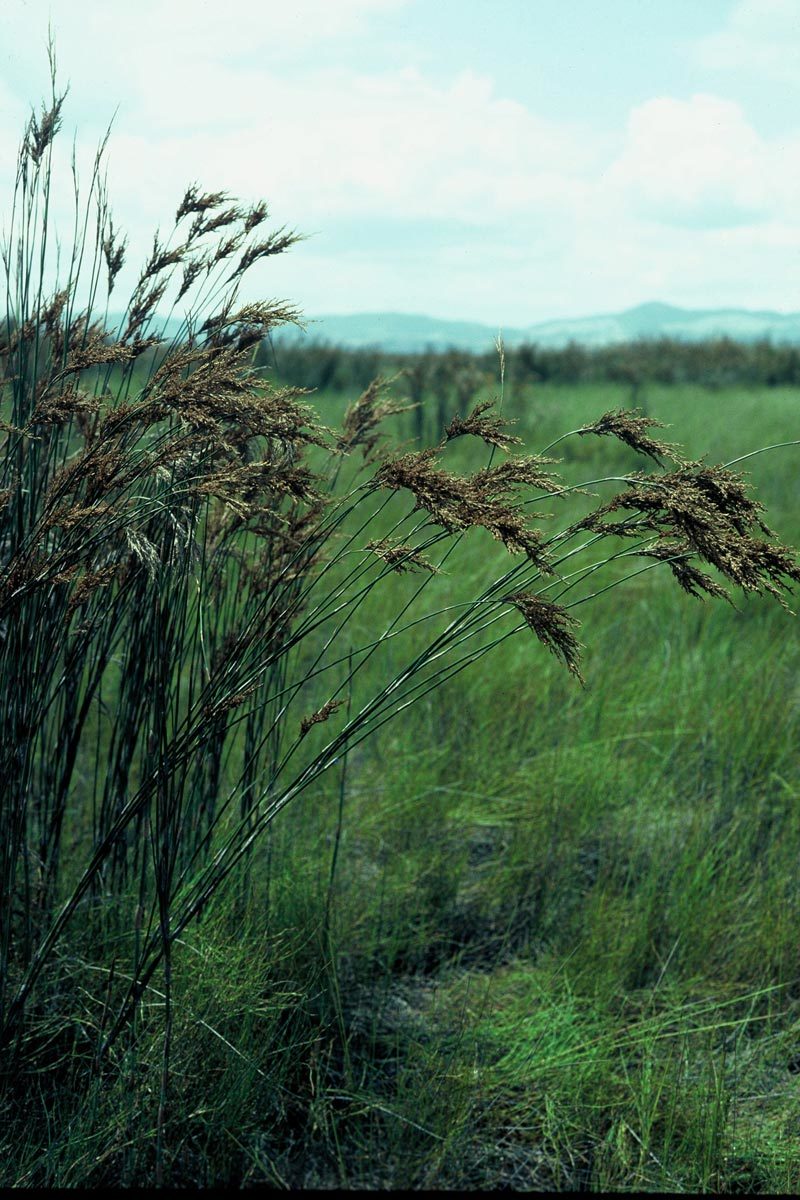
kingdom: Plantae
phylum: Tracheophyta
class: Liliopsida
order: Poales
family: Restionaceae
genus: Sporadanthus
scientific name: Sporadanthus ferrugineus
